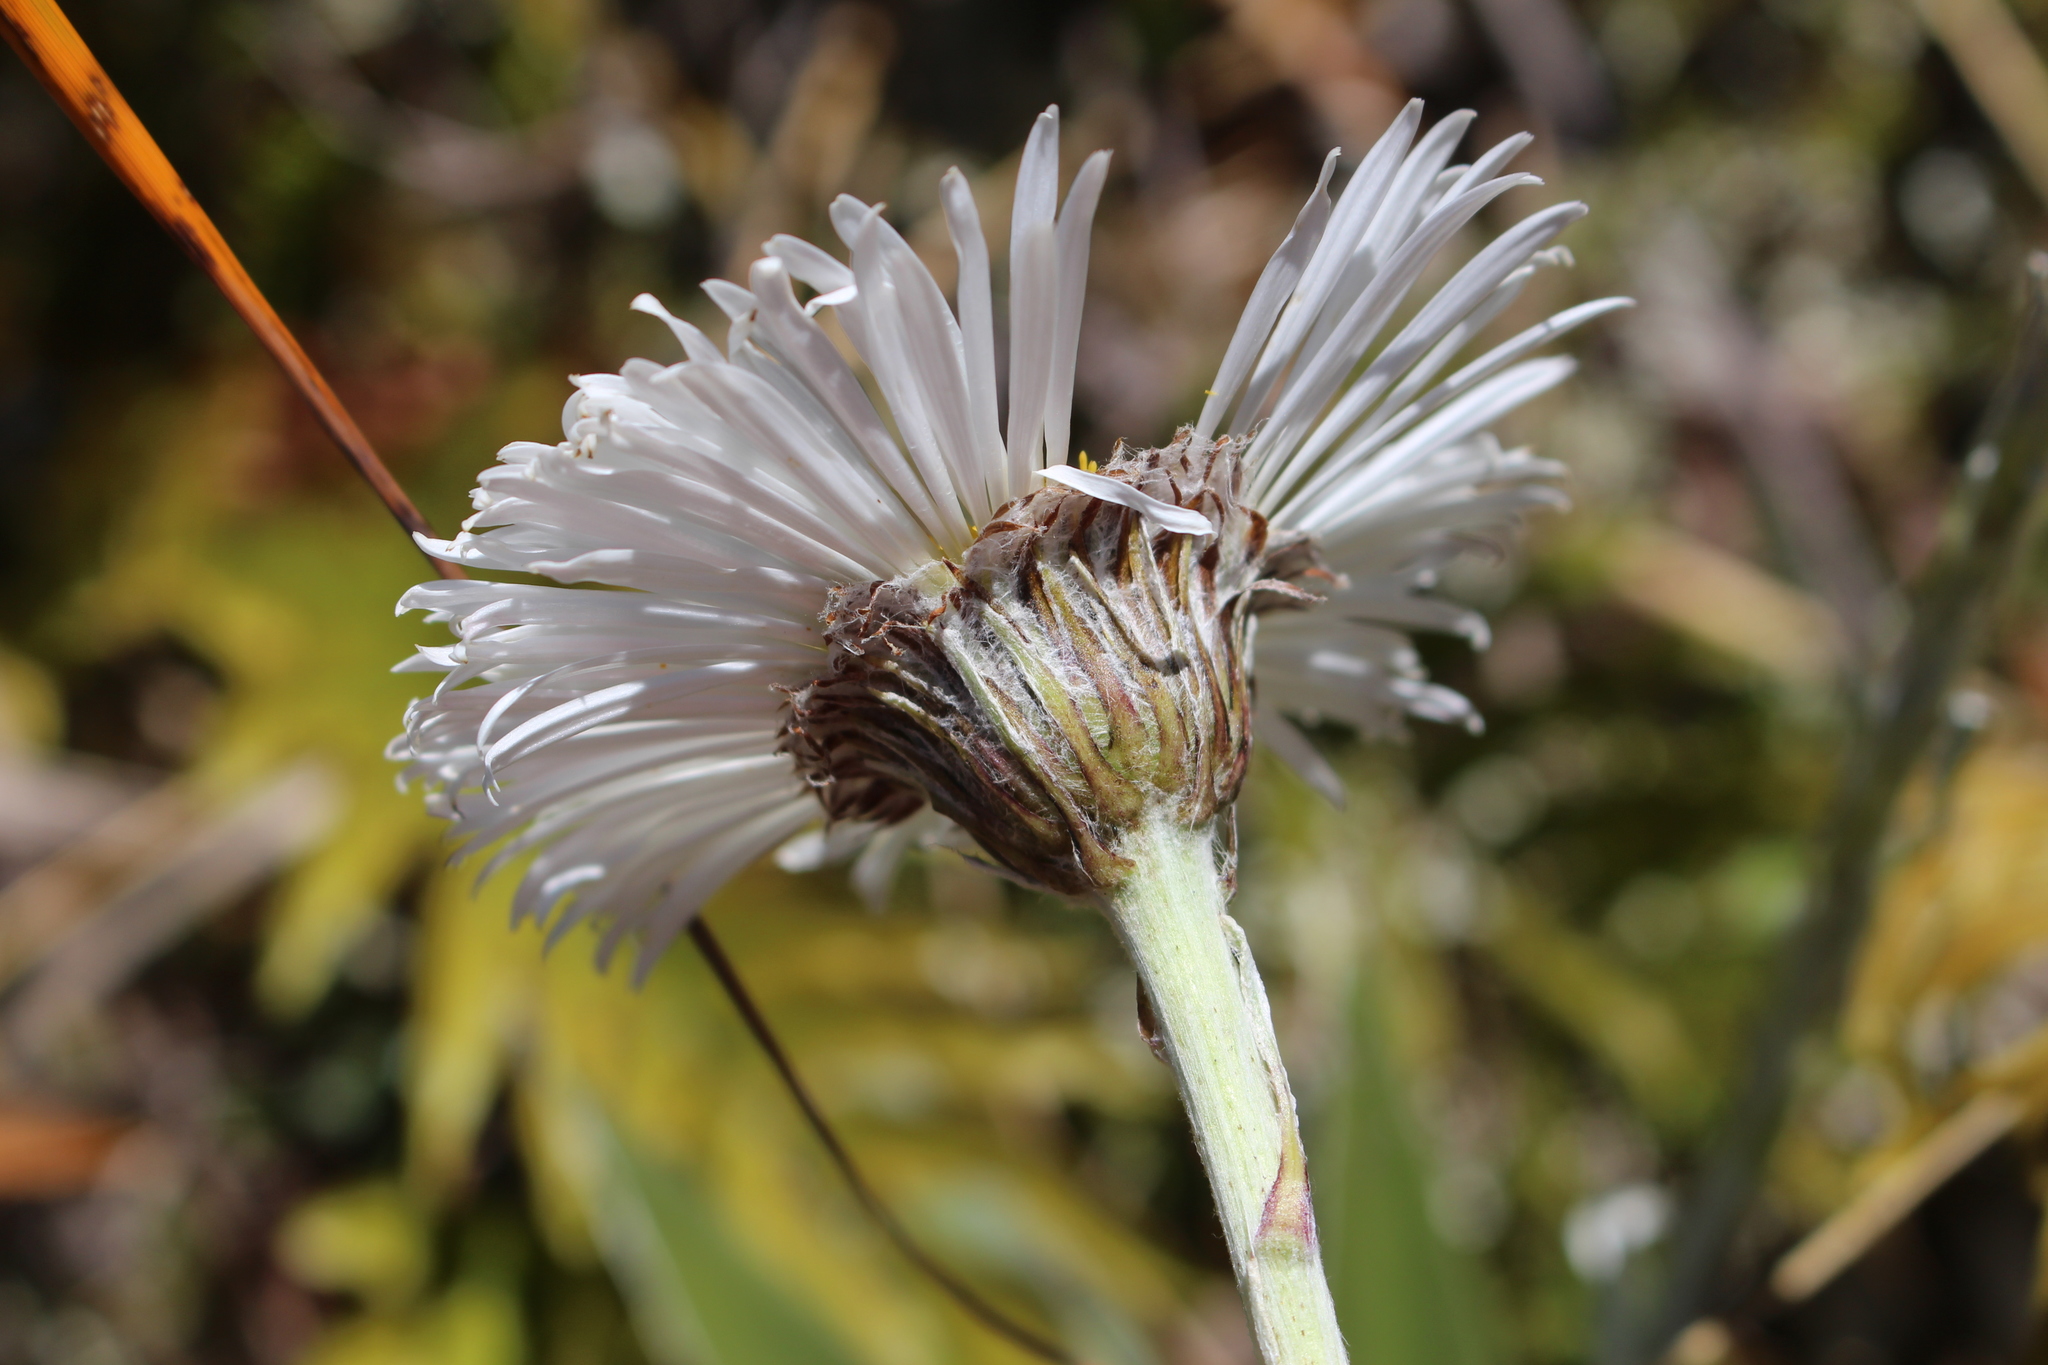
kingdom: Plantae
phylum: Tracheophyta
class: Magnoliopsida
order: Asterales
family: Asteraceae
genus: Celmisia
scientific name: Celmisia semicordata
